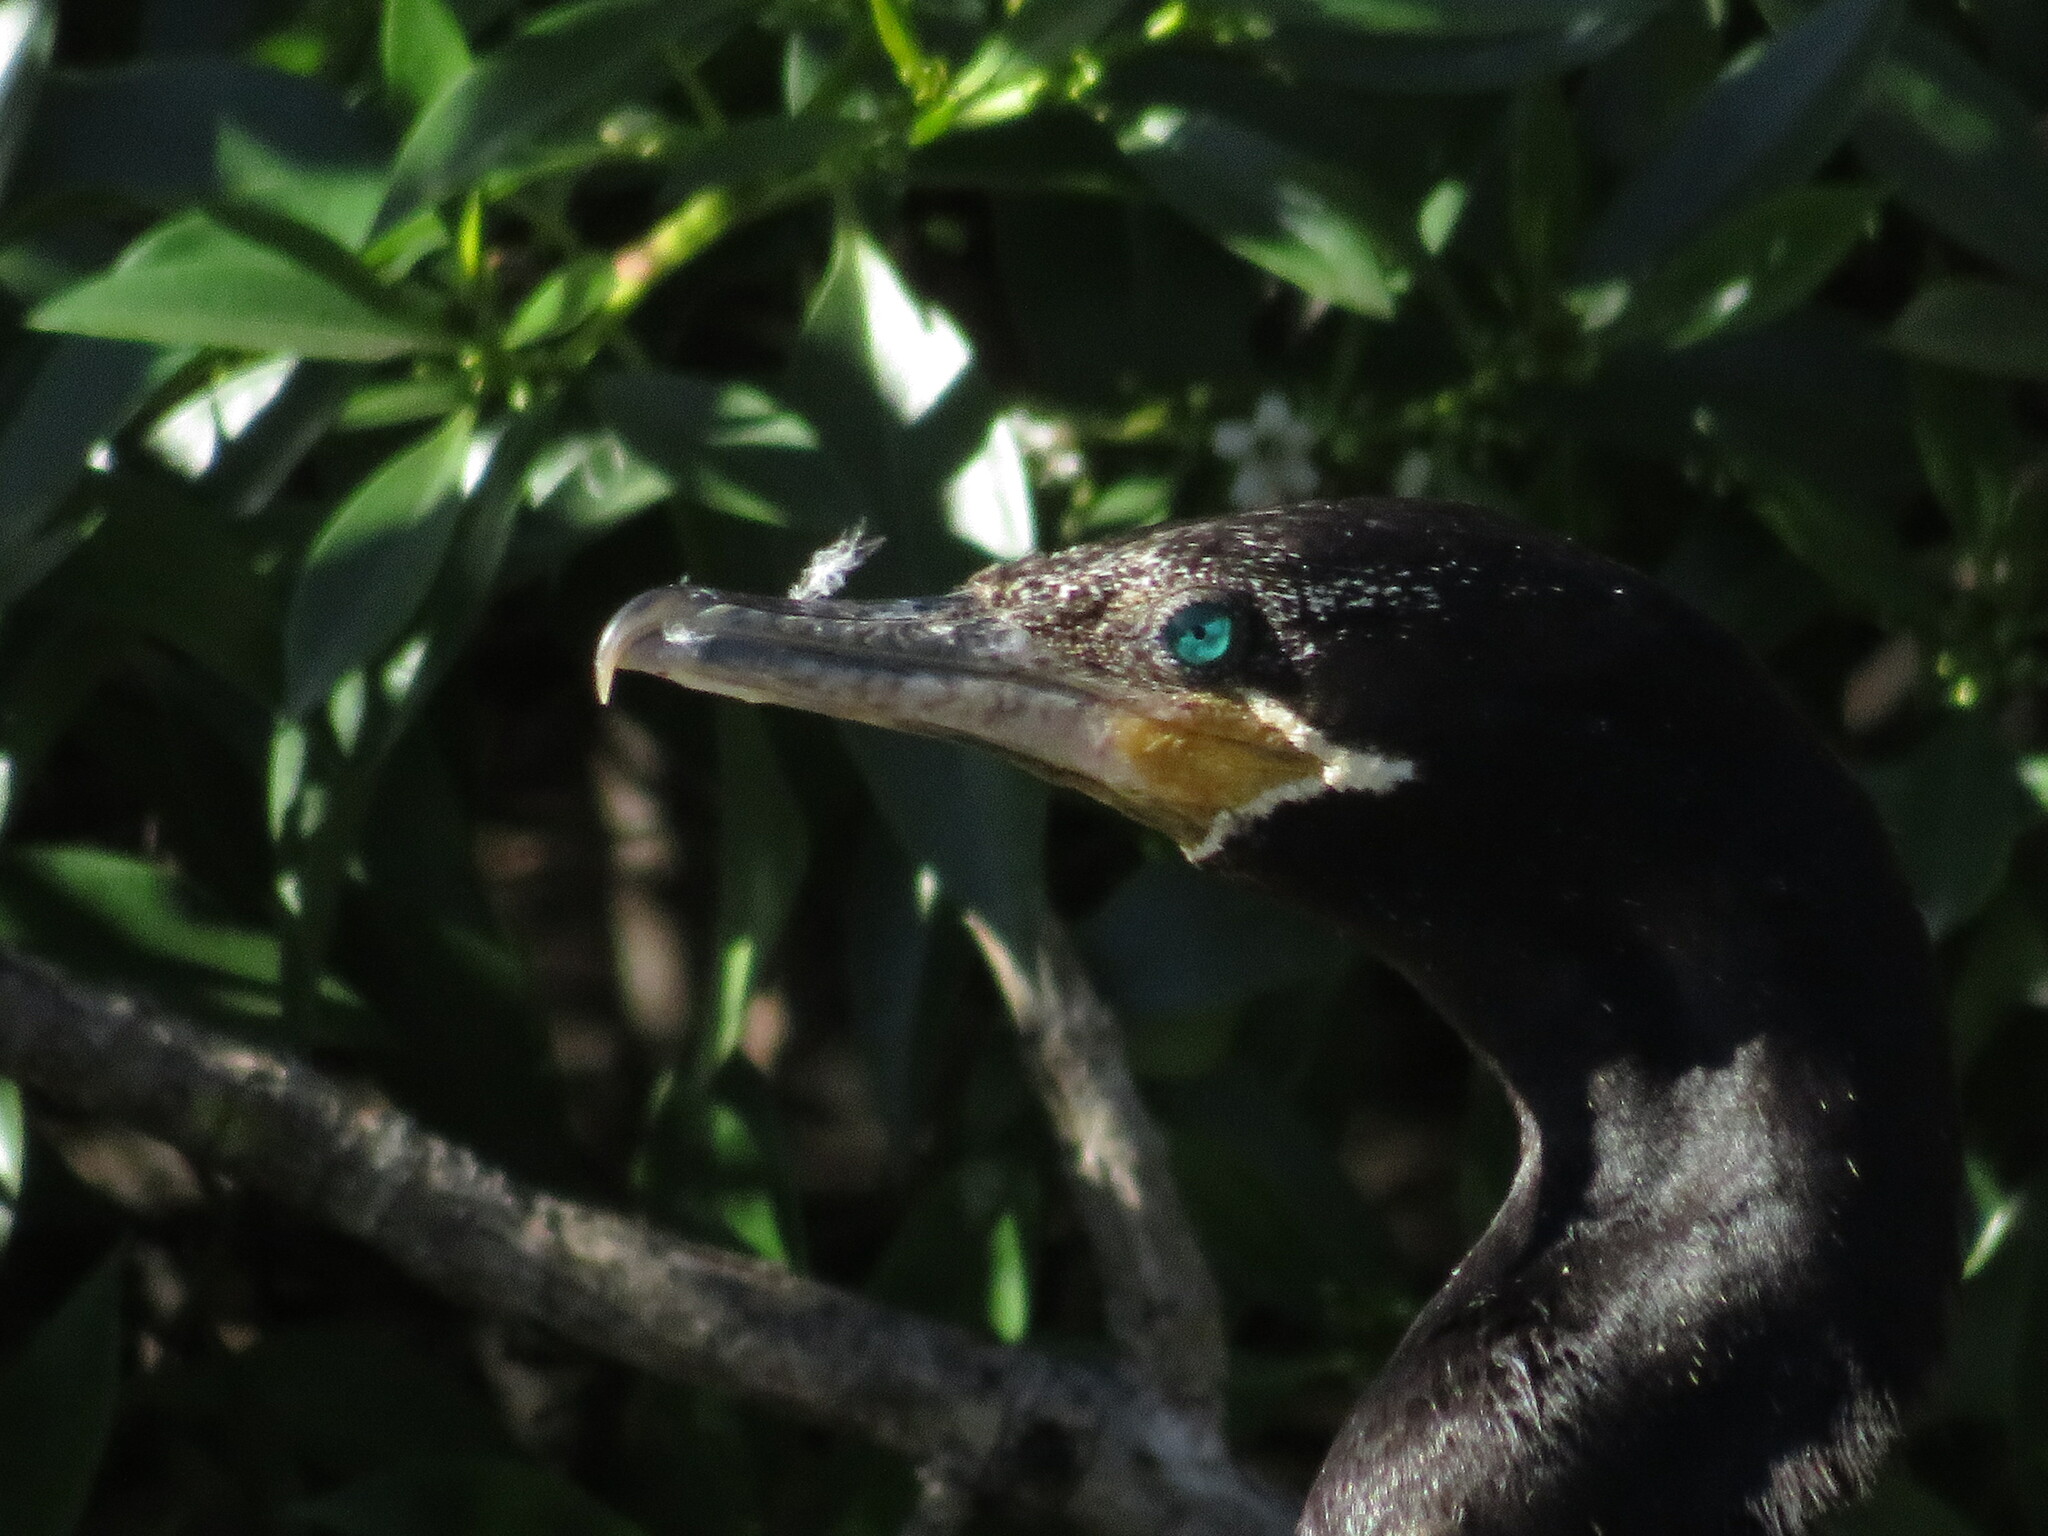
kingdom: Animalia
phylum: Chordata
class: Aves
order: Suliformes
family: Phalacrocoracidae
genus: Phalacrocorax
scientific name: Phalacrocorax brasilianus
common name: Neotropic cormorant
